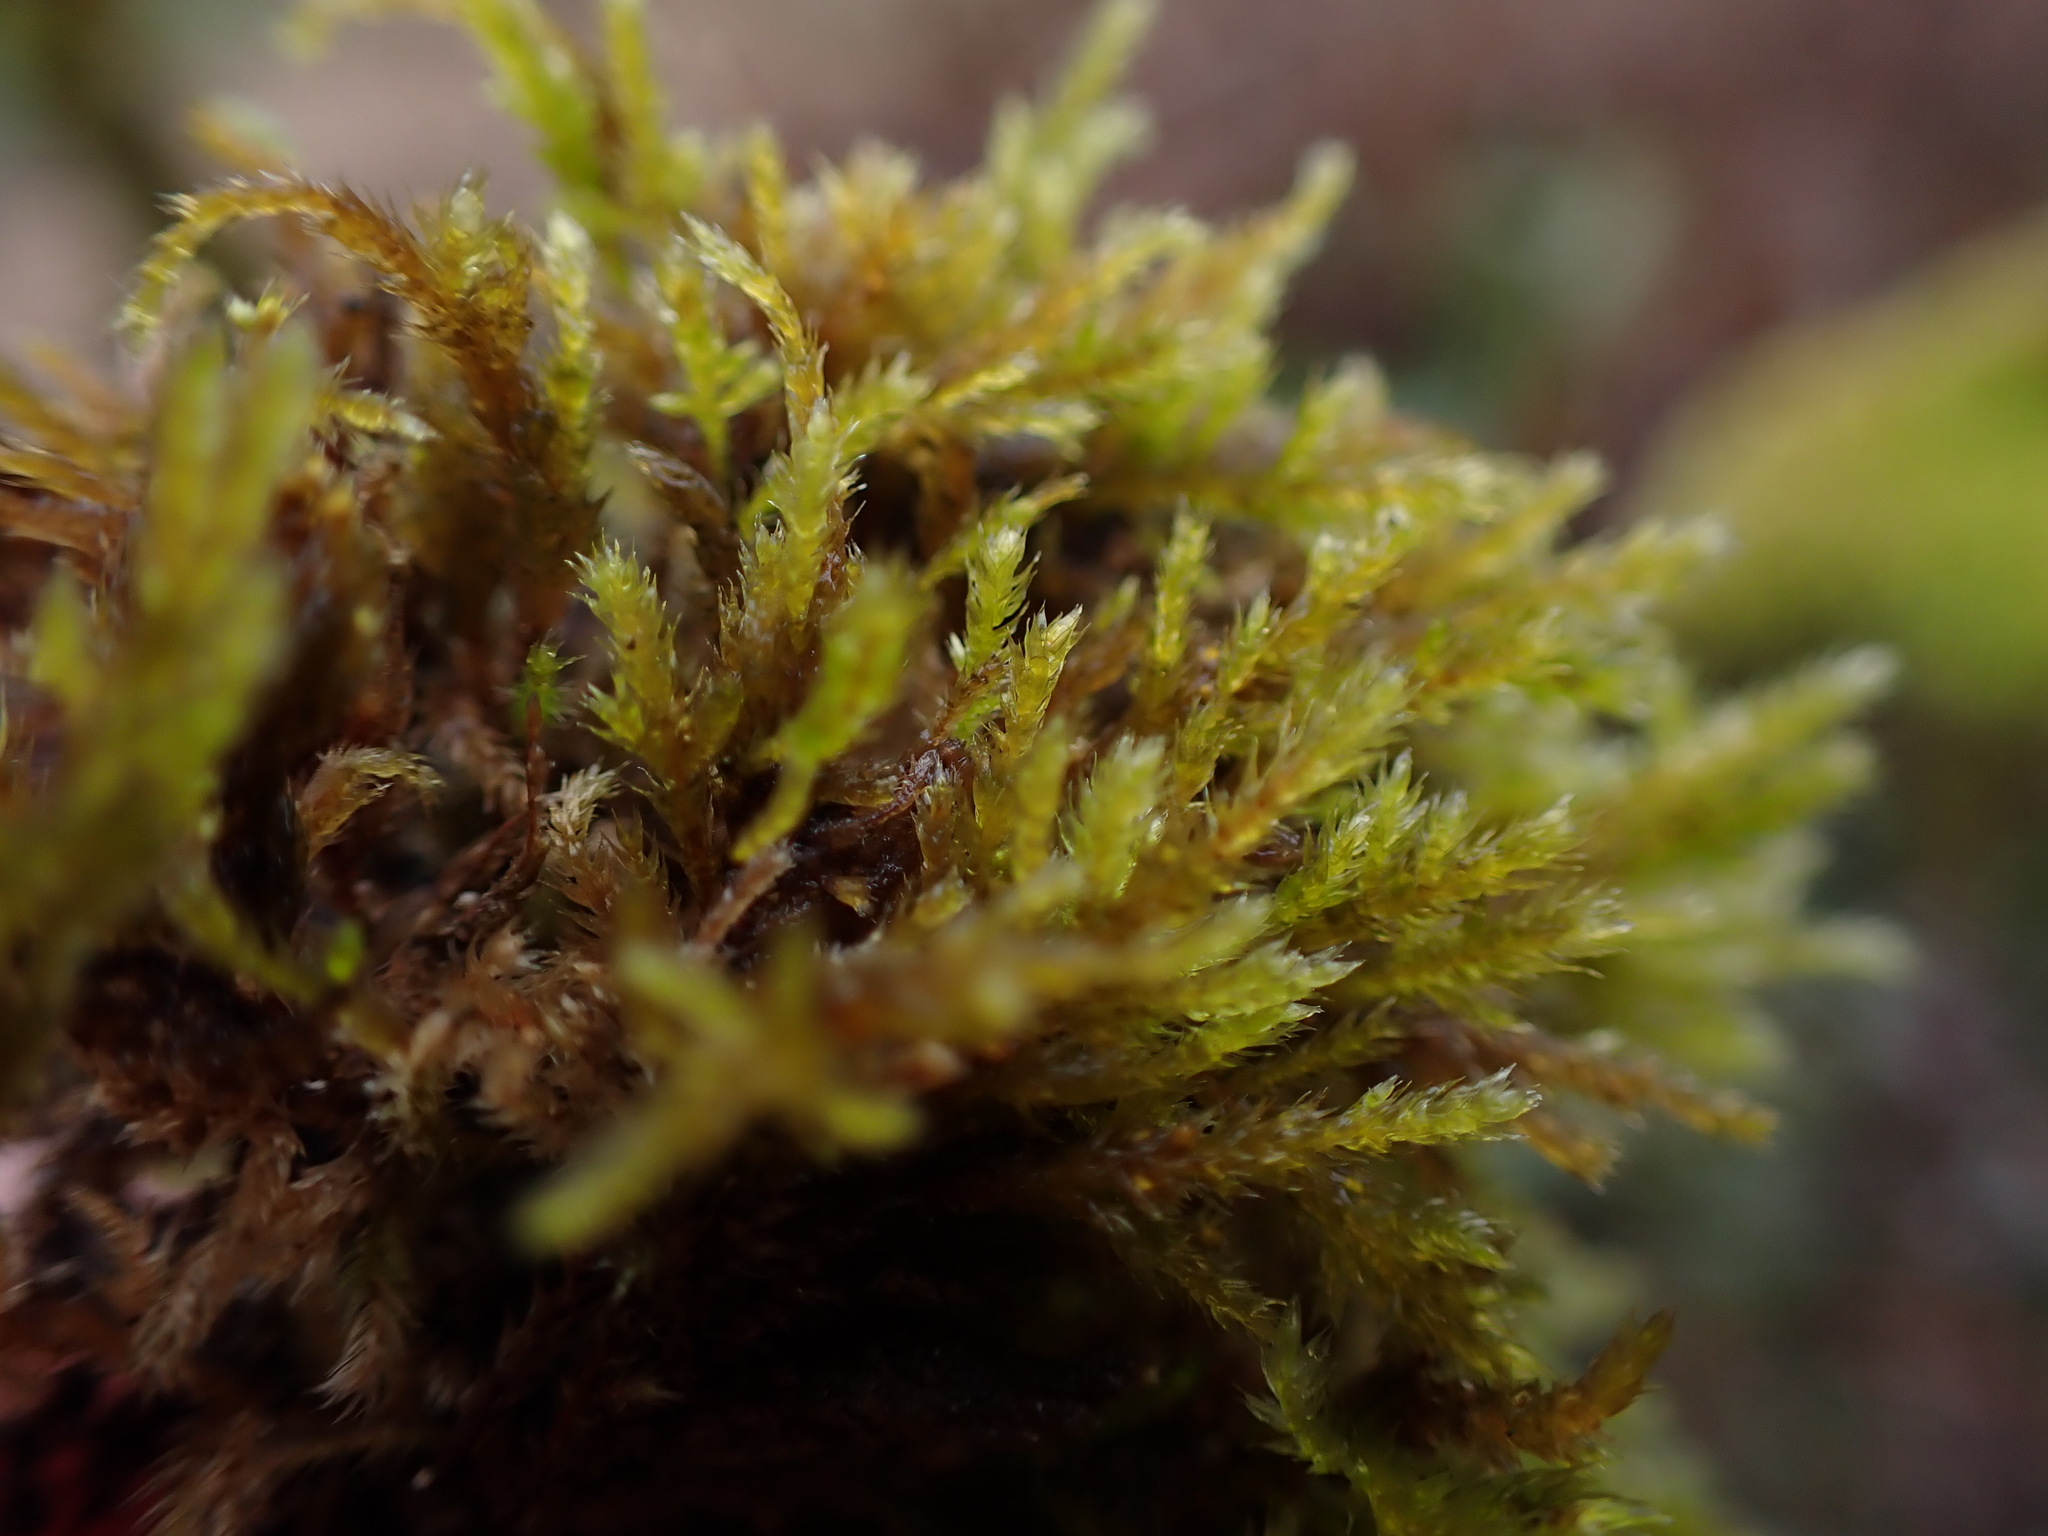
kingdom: Plantae
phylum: Bryophyta
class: Bryopsida
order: Hypnales
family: Lembophyllaceae
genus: Pseudisothecium
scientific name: Pseudisothecium stoloniferum
